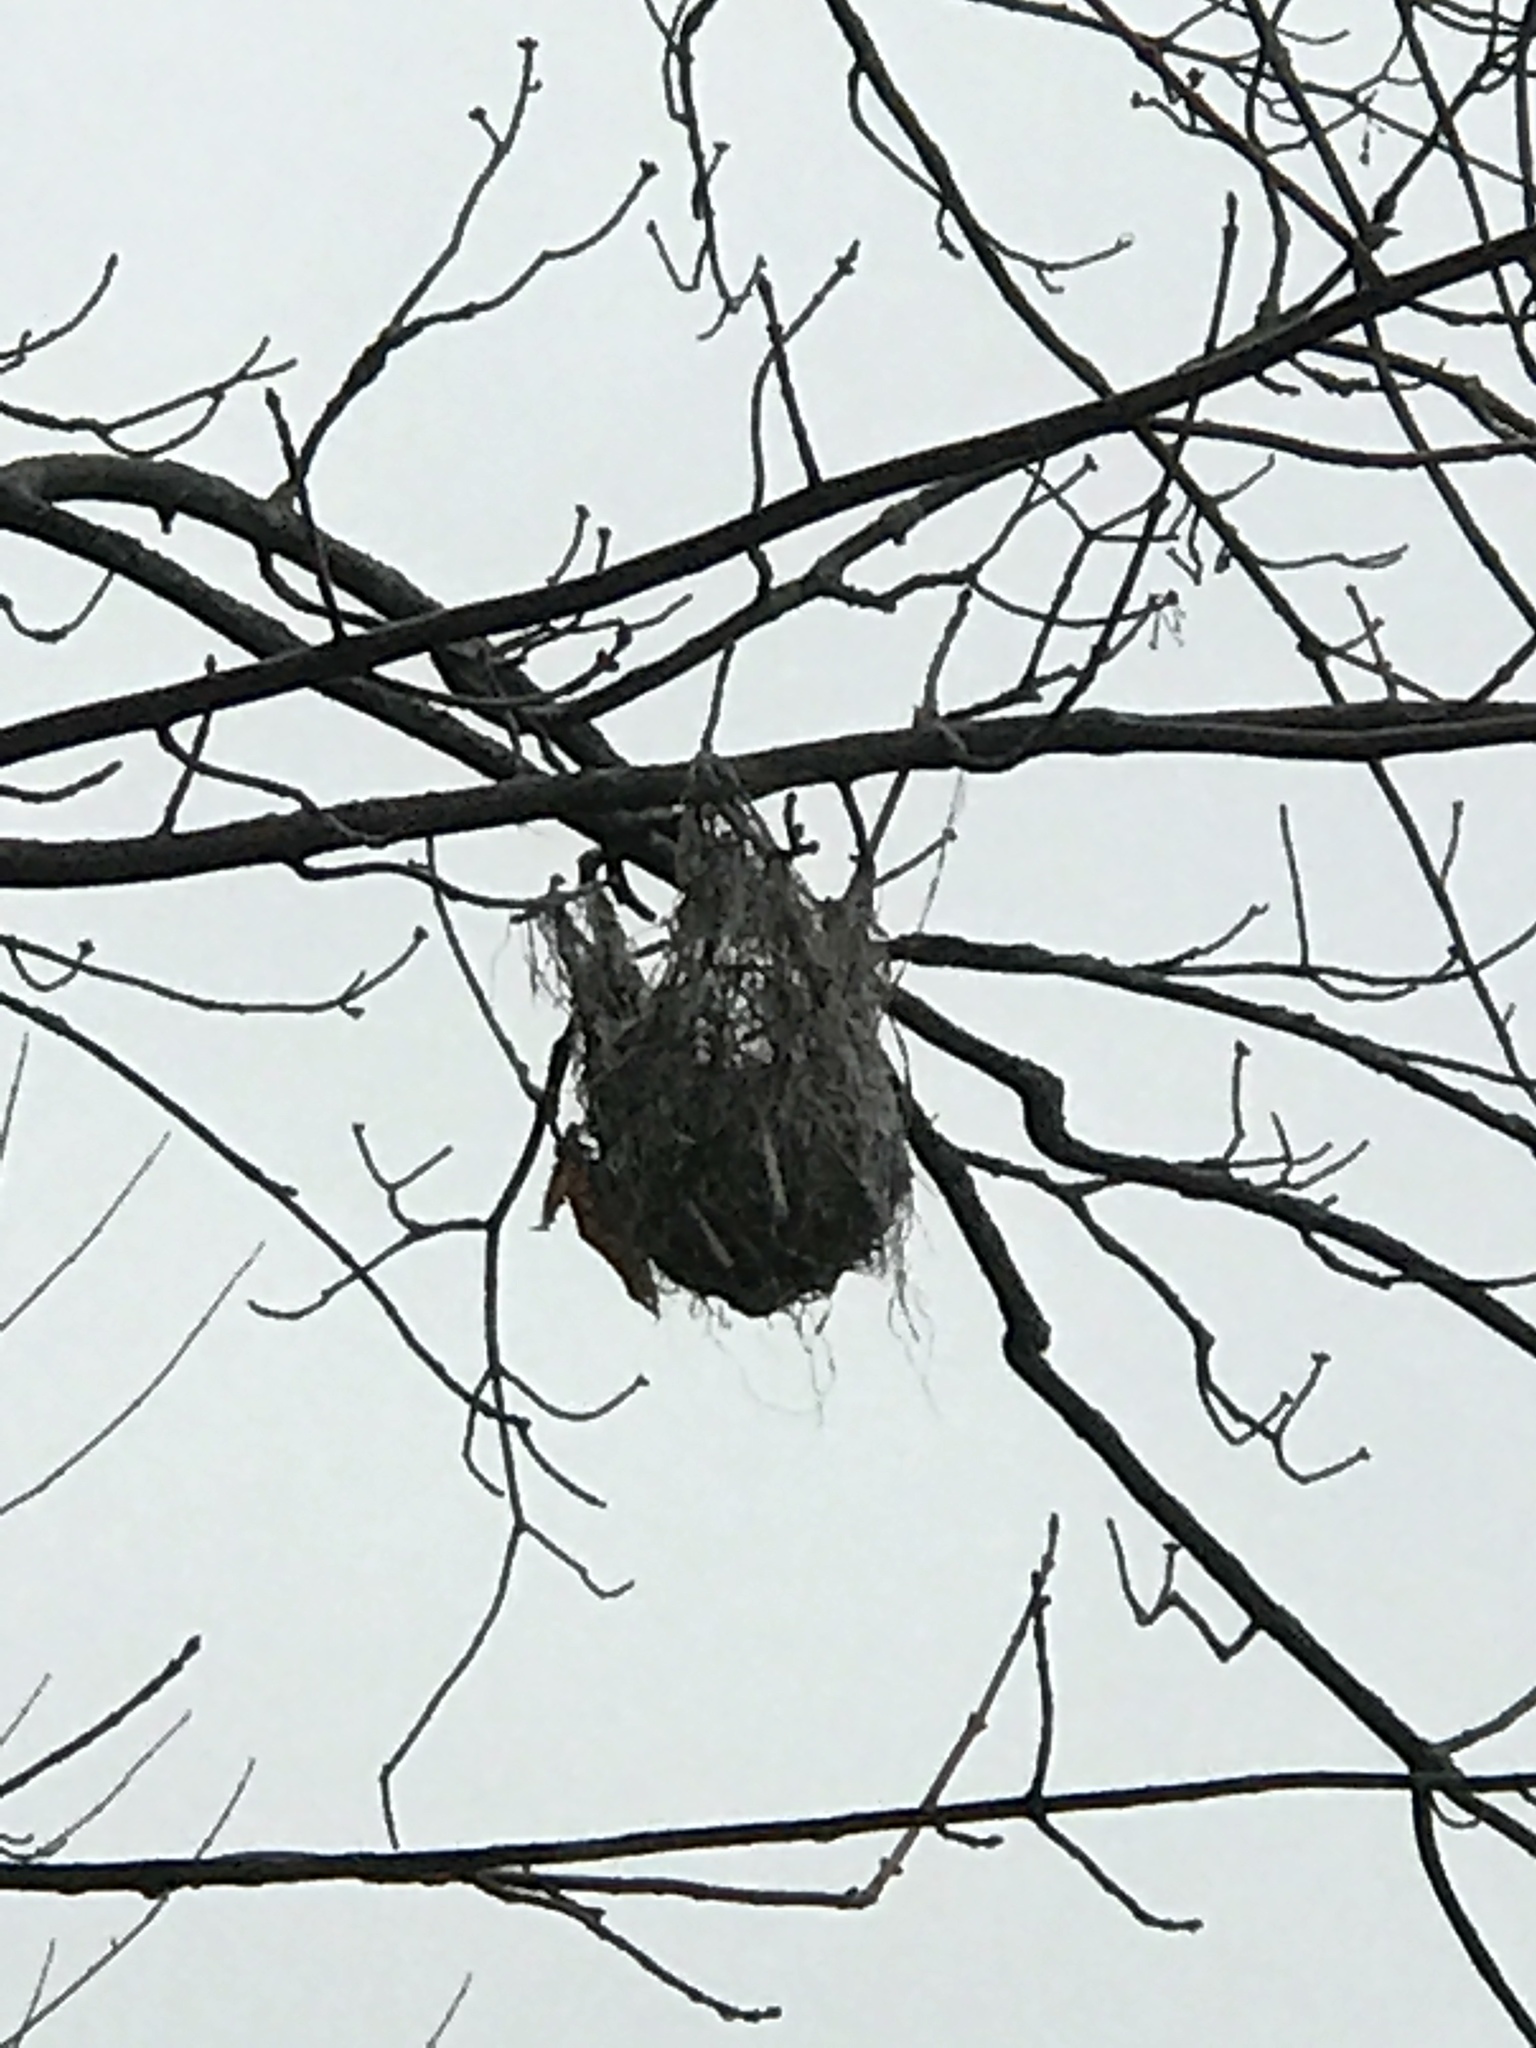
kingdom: Animalia
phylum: Chordata
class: Aves
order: Passeriformes
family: Icteridae
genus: Icterus
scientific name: Icterus galbula
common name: Baltimore oriole
